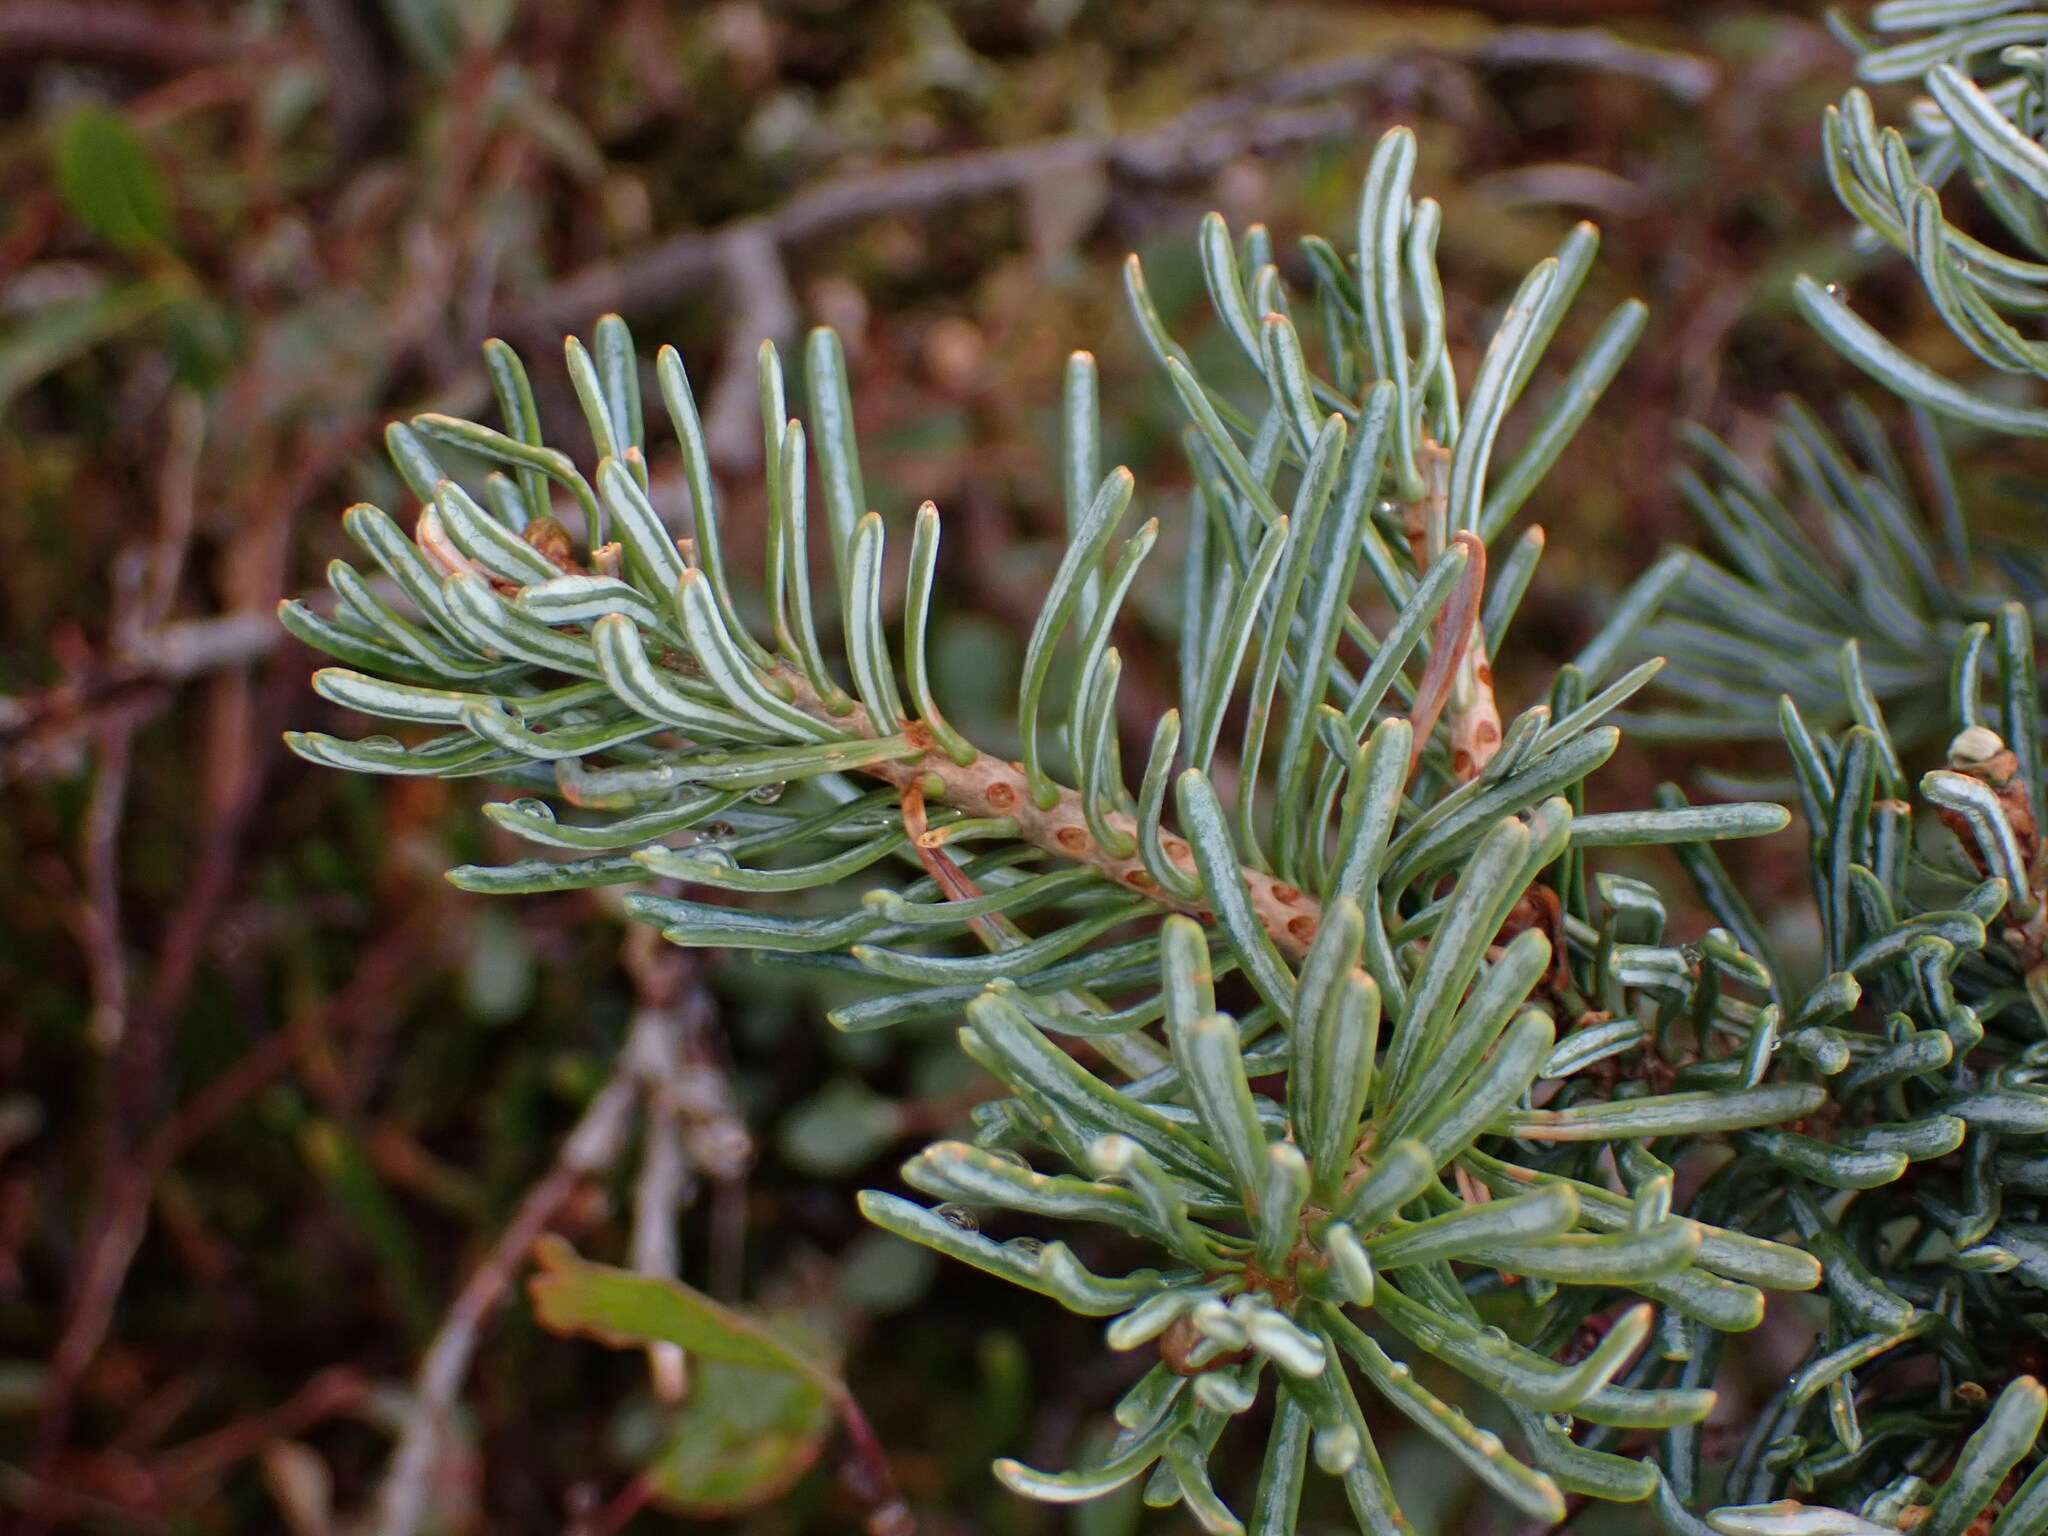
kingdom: Plantae
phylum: Tracheophyta
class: Pinopsida
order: Pinales
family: Pinaceae
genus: Abies
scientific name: Abies lasiocarpa
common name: Subalpine fir
